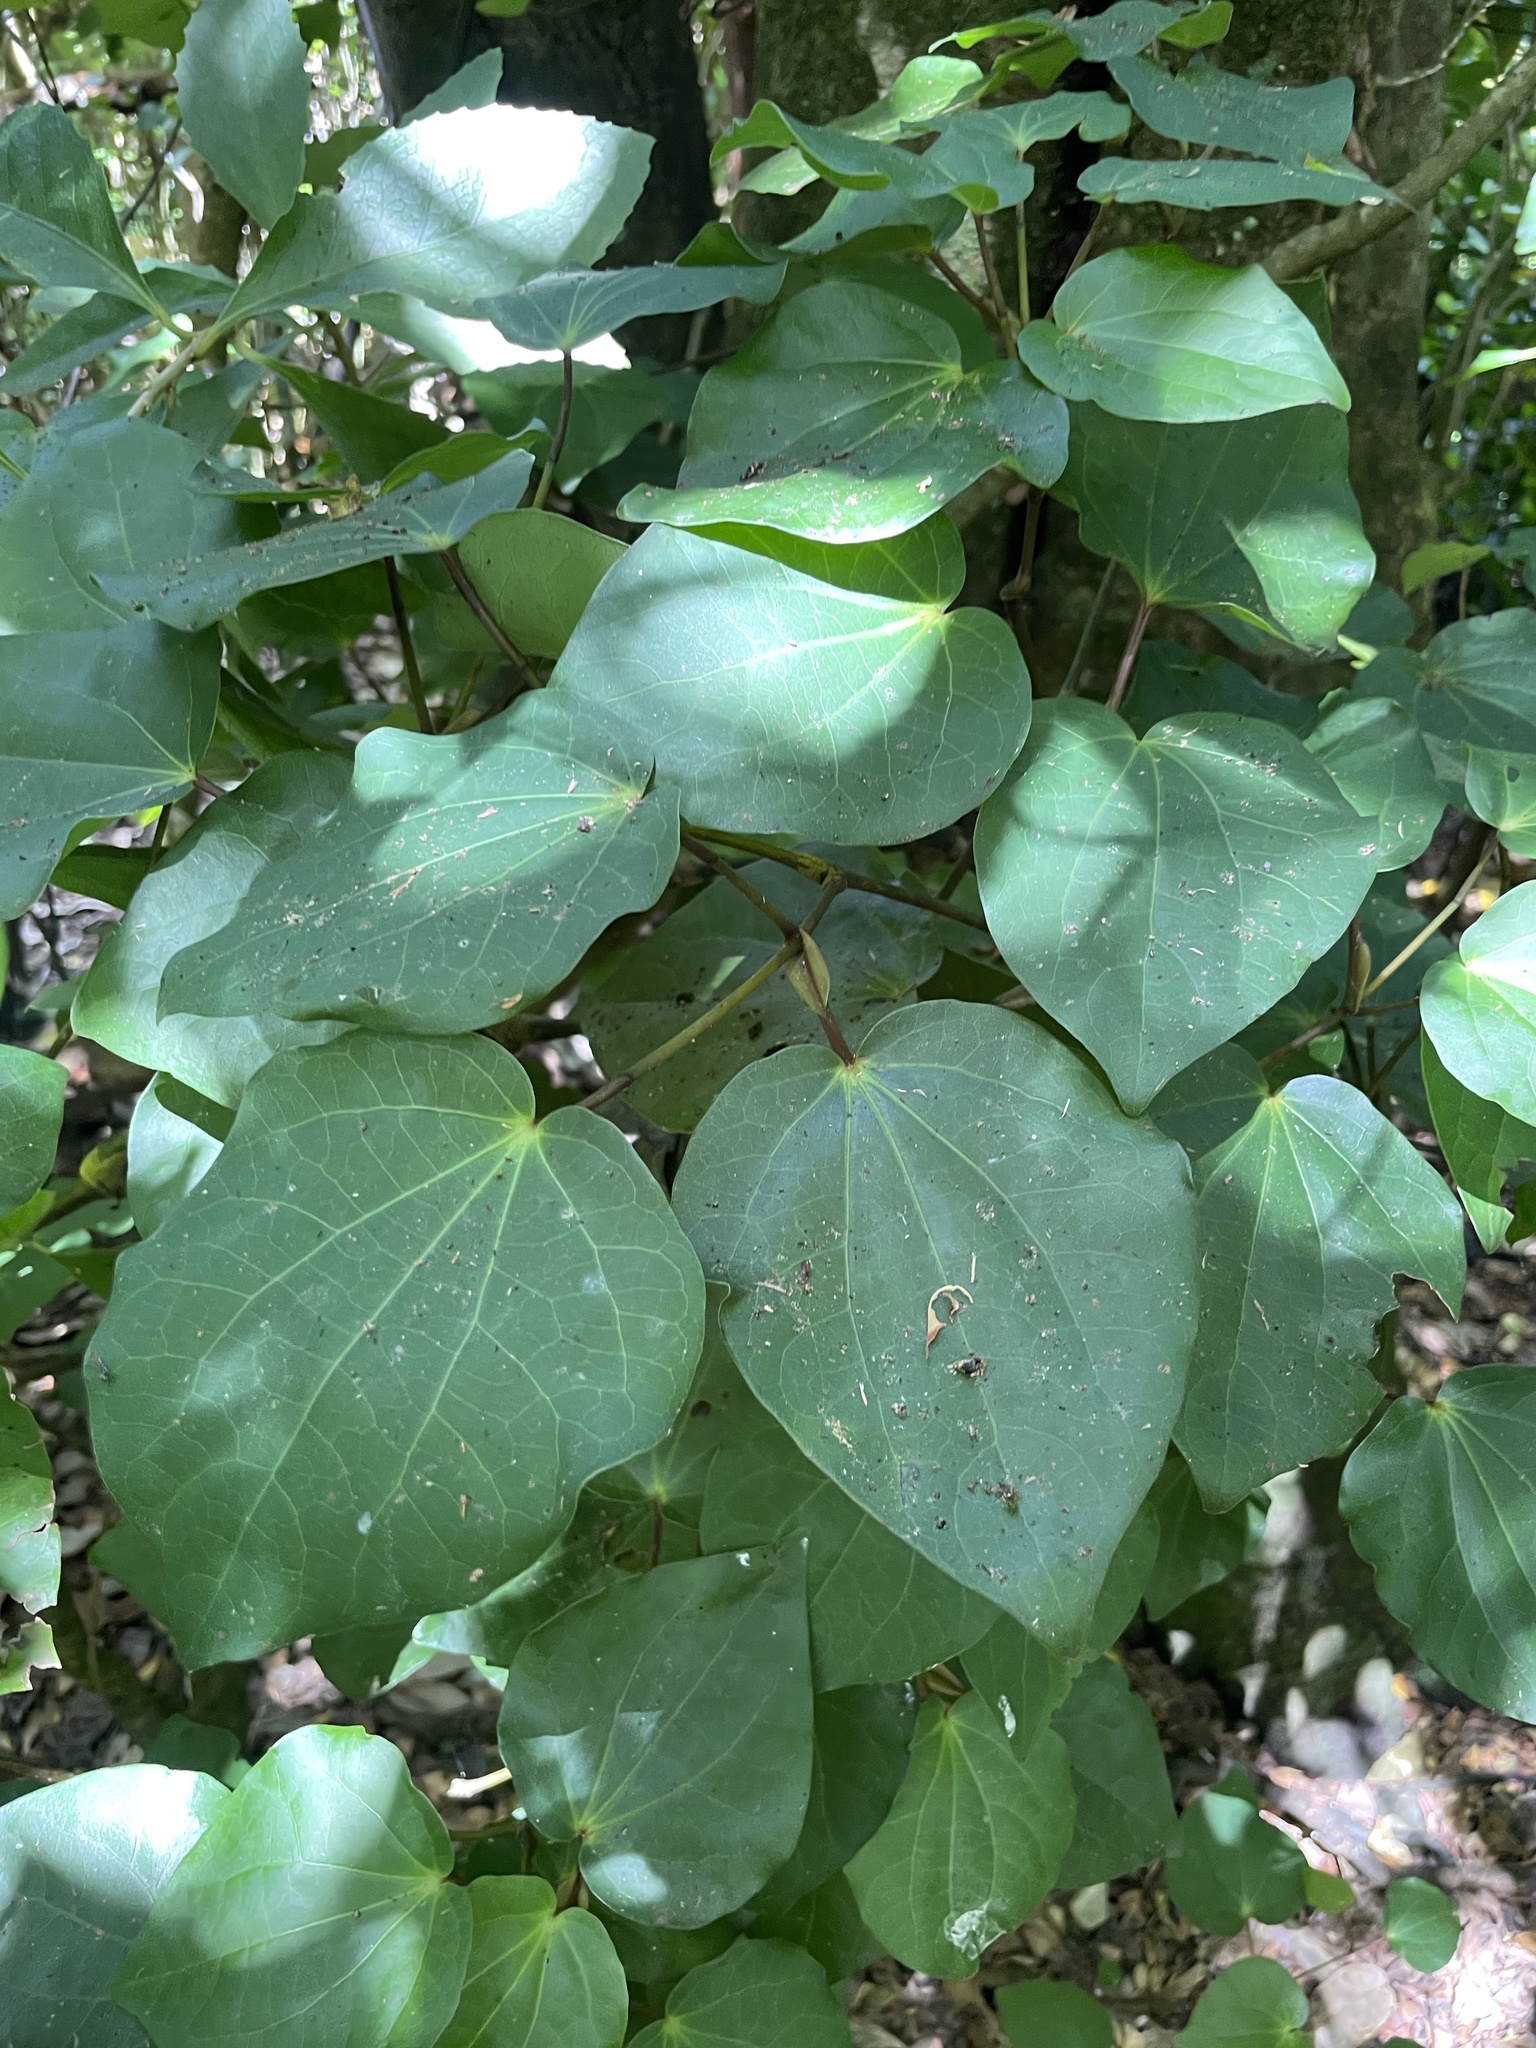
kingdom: Plantae
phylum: Tracheophyta
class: Magnoliopsida
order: Piperales
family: Piperaceae
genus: Macropiper
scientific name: Macropiper excelsum
